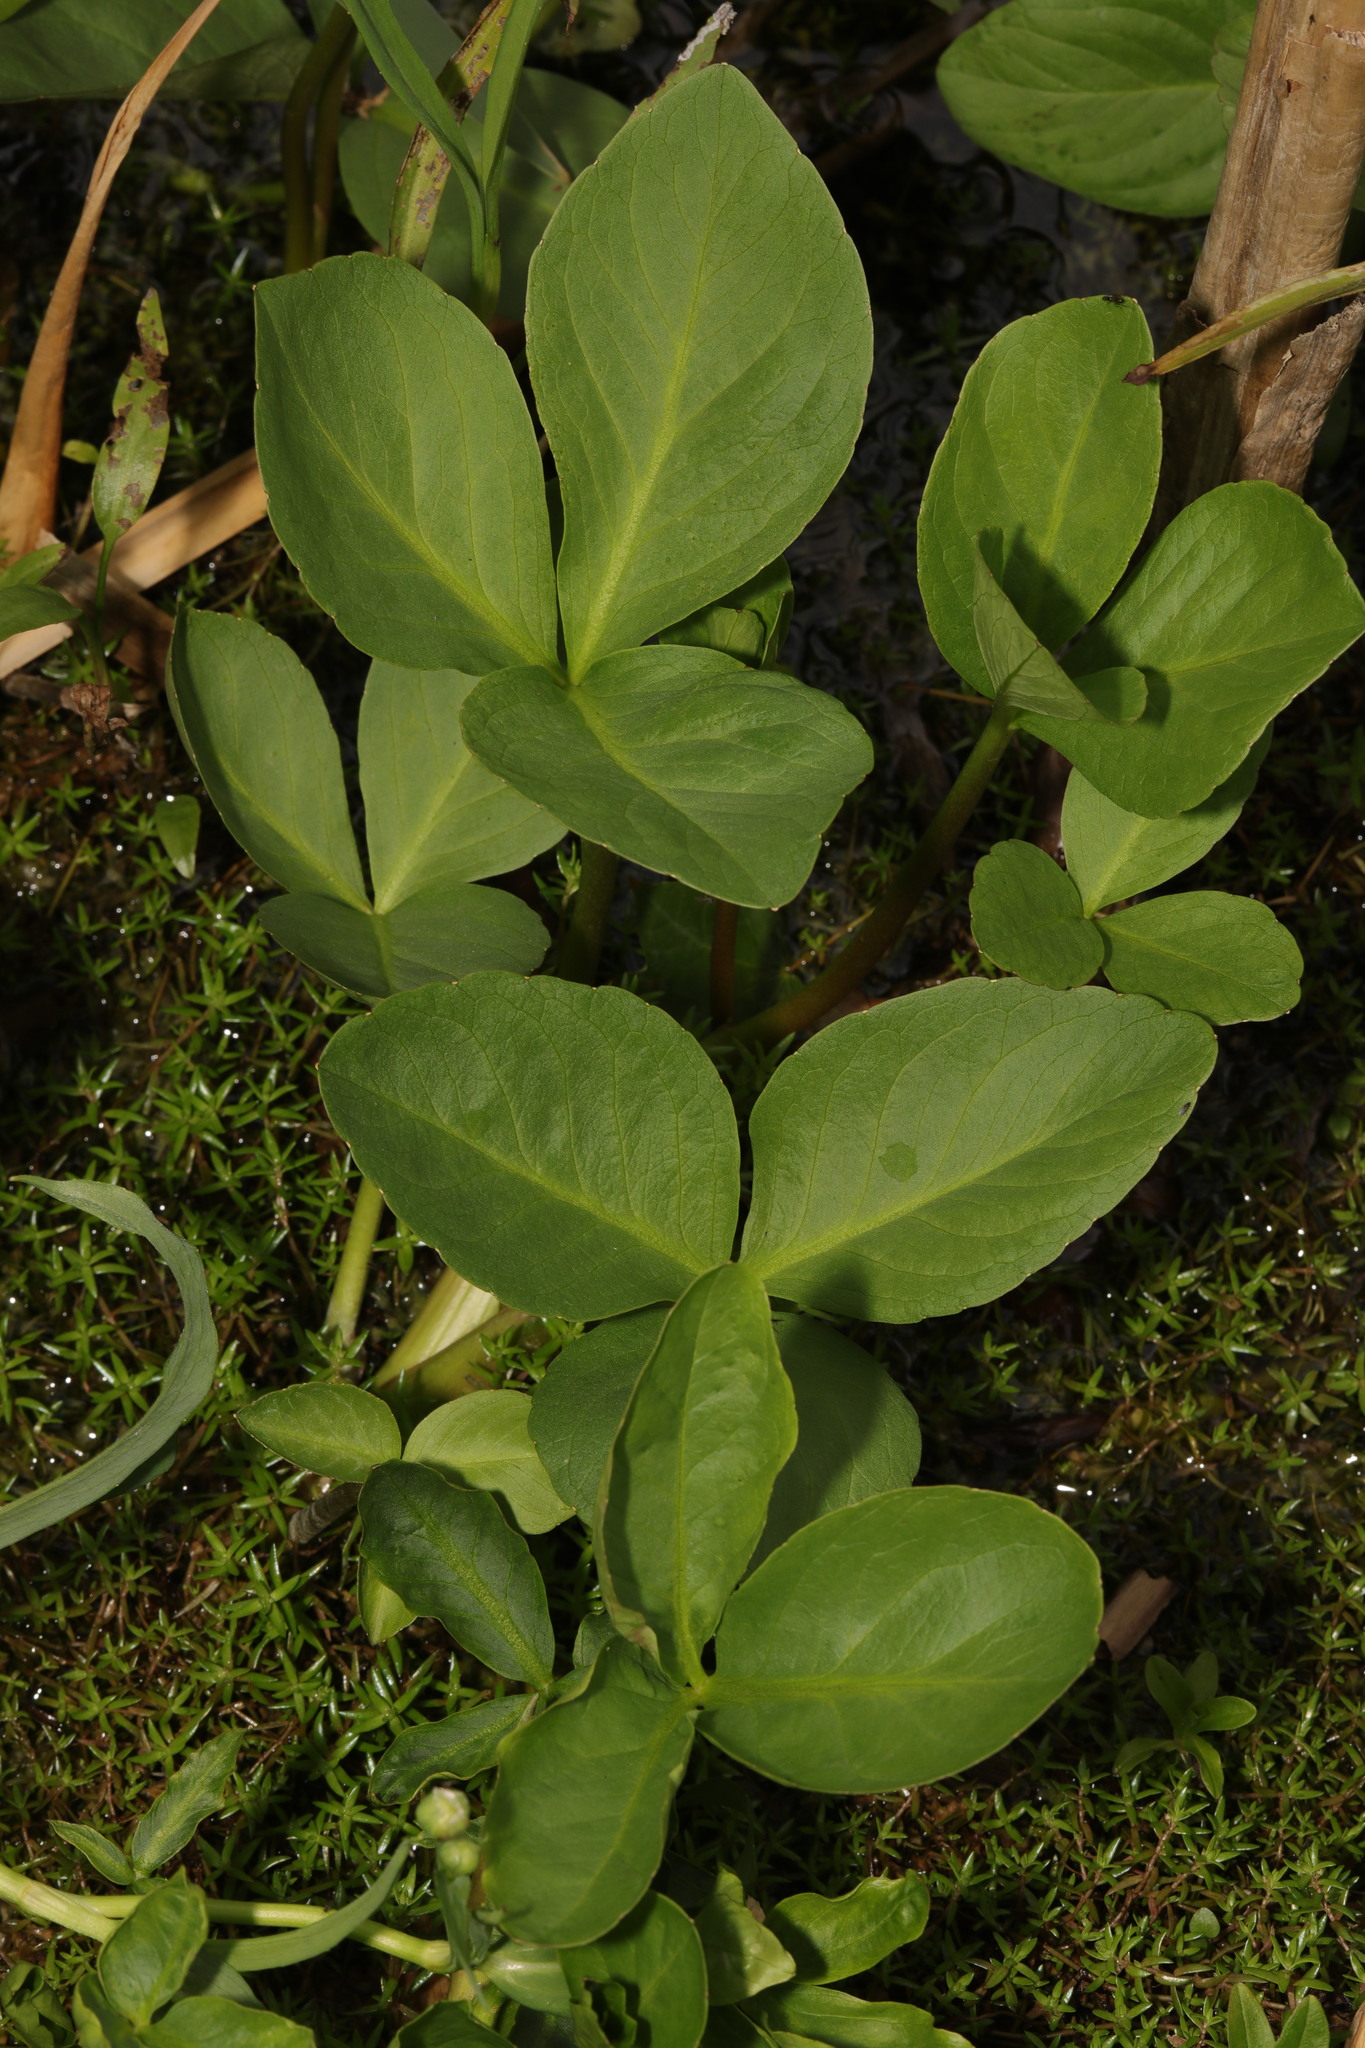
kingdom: Plantae
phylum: Tracheophyta
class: Magnoliopsida
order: Asterales
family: Menyanthaceae
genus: Menyanthes
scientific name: Menyanthes trifoliata
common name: Bogbean
